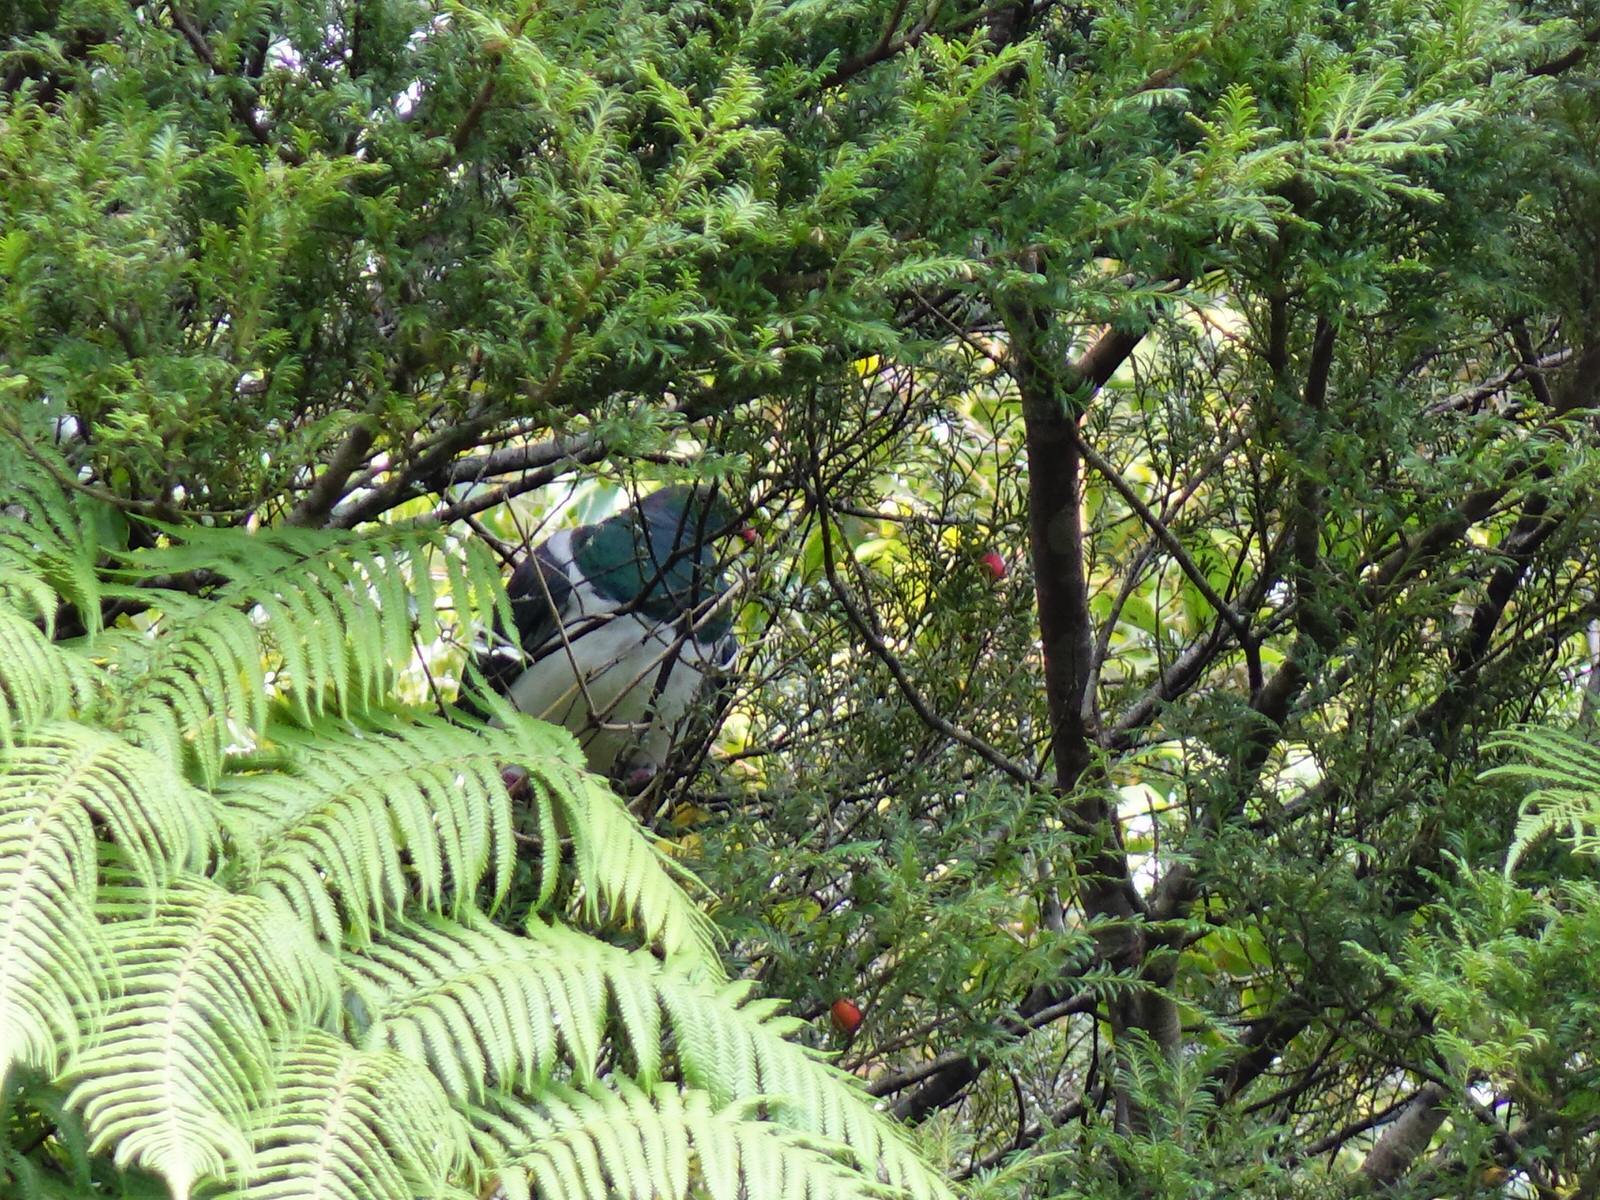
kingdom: Animalia
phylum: Chordata
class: Aves
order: Columbiformes
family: Columbidae
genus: Hemiphaga
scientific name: Hemiphaga novaeseelandiae
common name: New zealand pigeon
